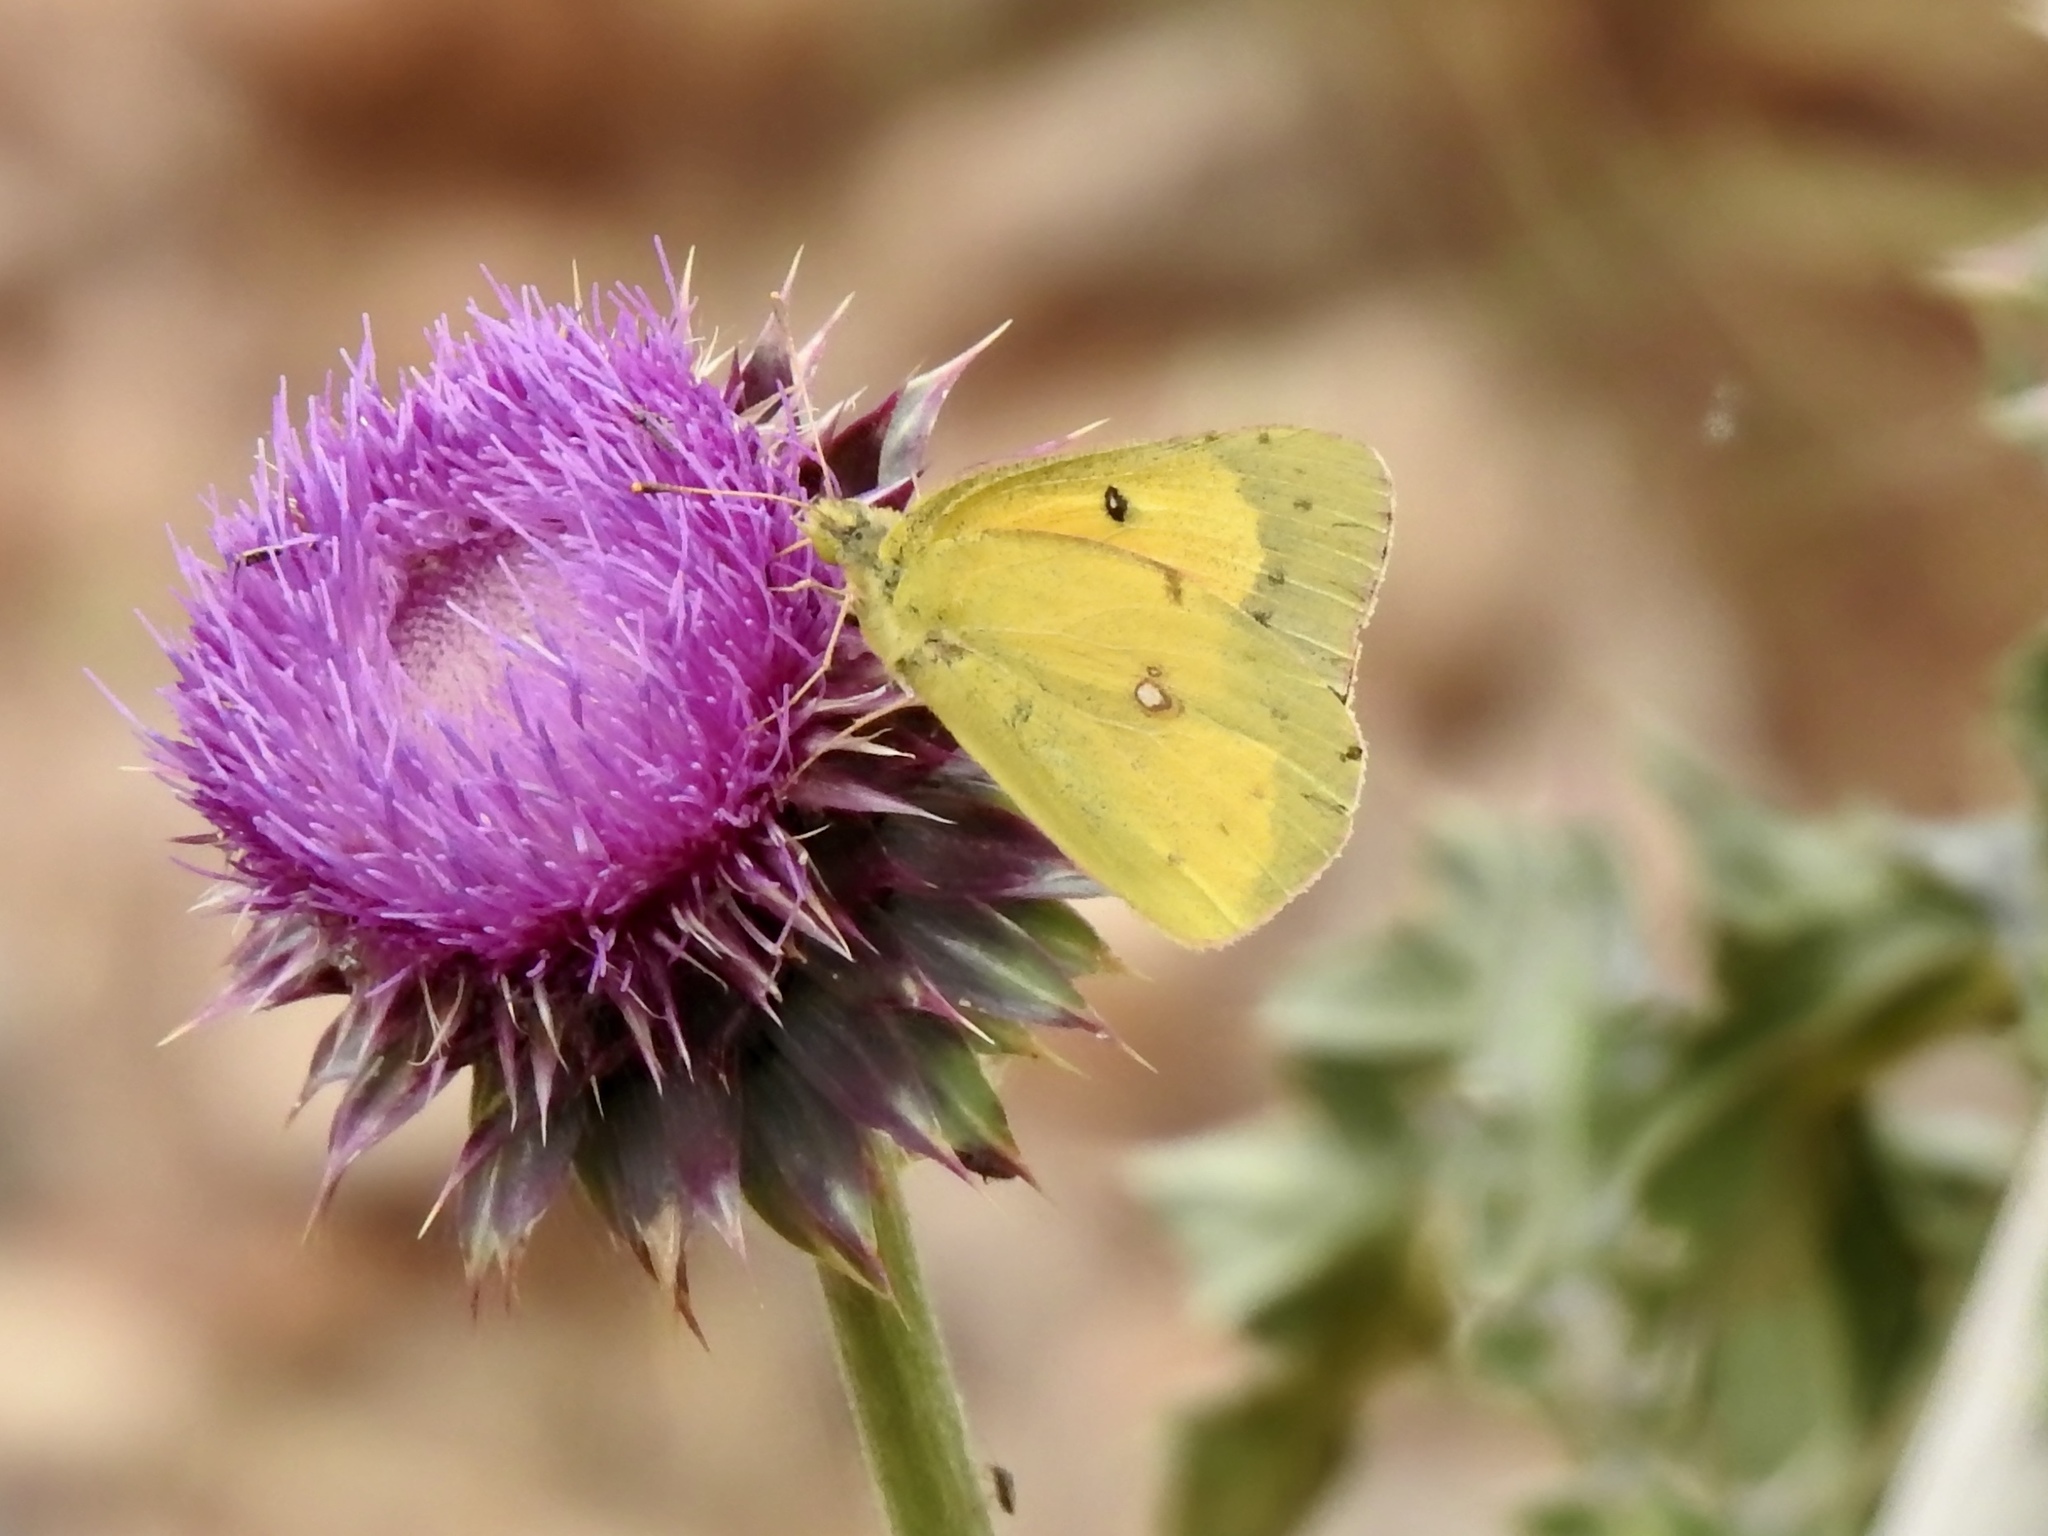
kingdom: Animalia
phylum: Arthropoda
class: Insecta
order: Lepidoptera
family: Pieridae
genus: Colias
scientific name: Colias eurytheme
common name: Alfalfa butterfly
